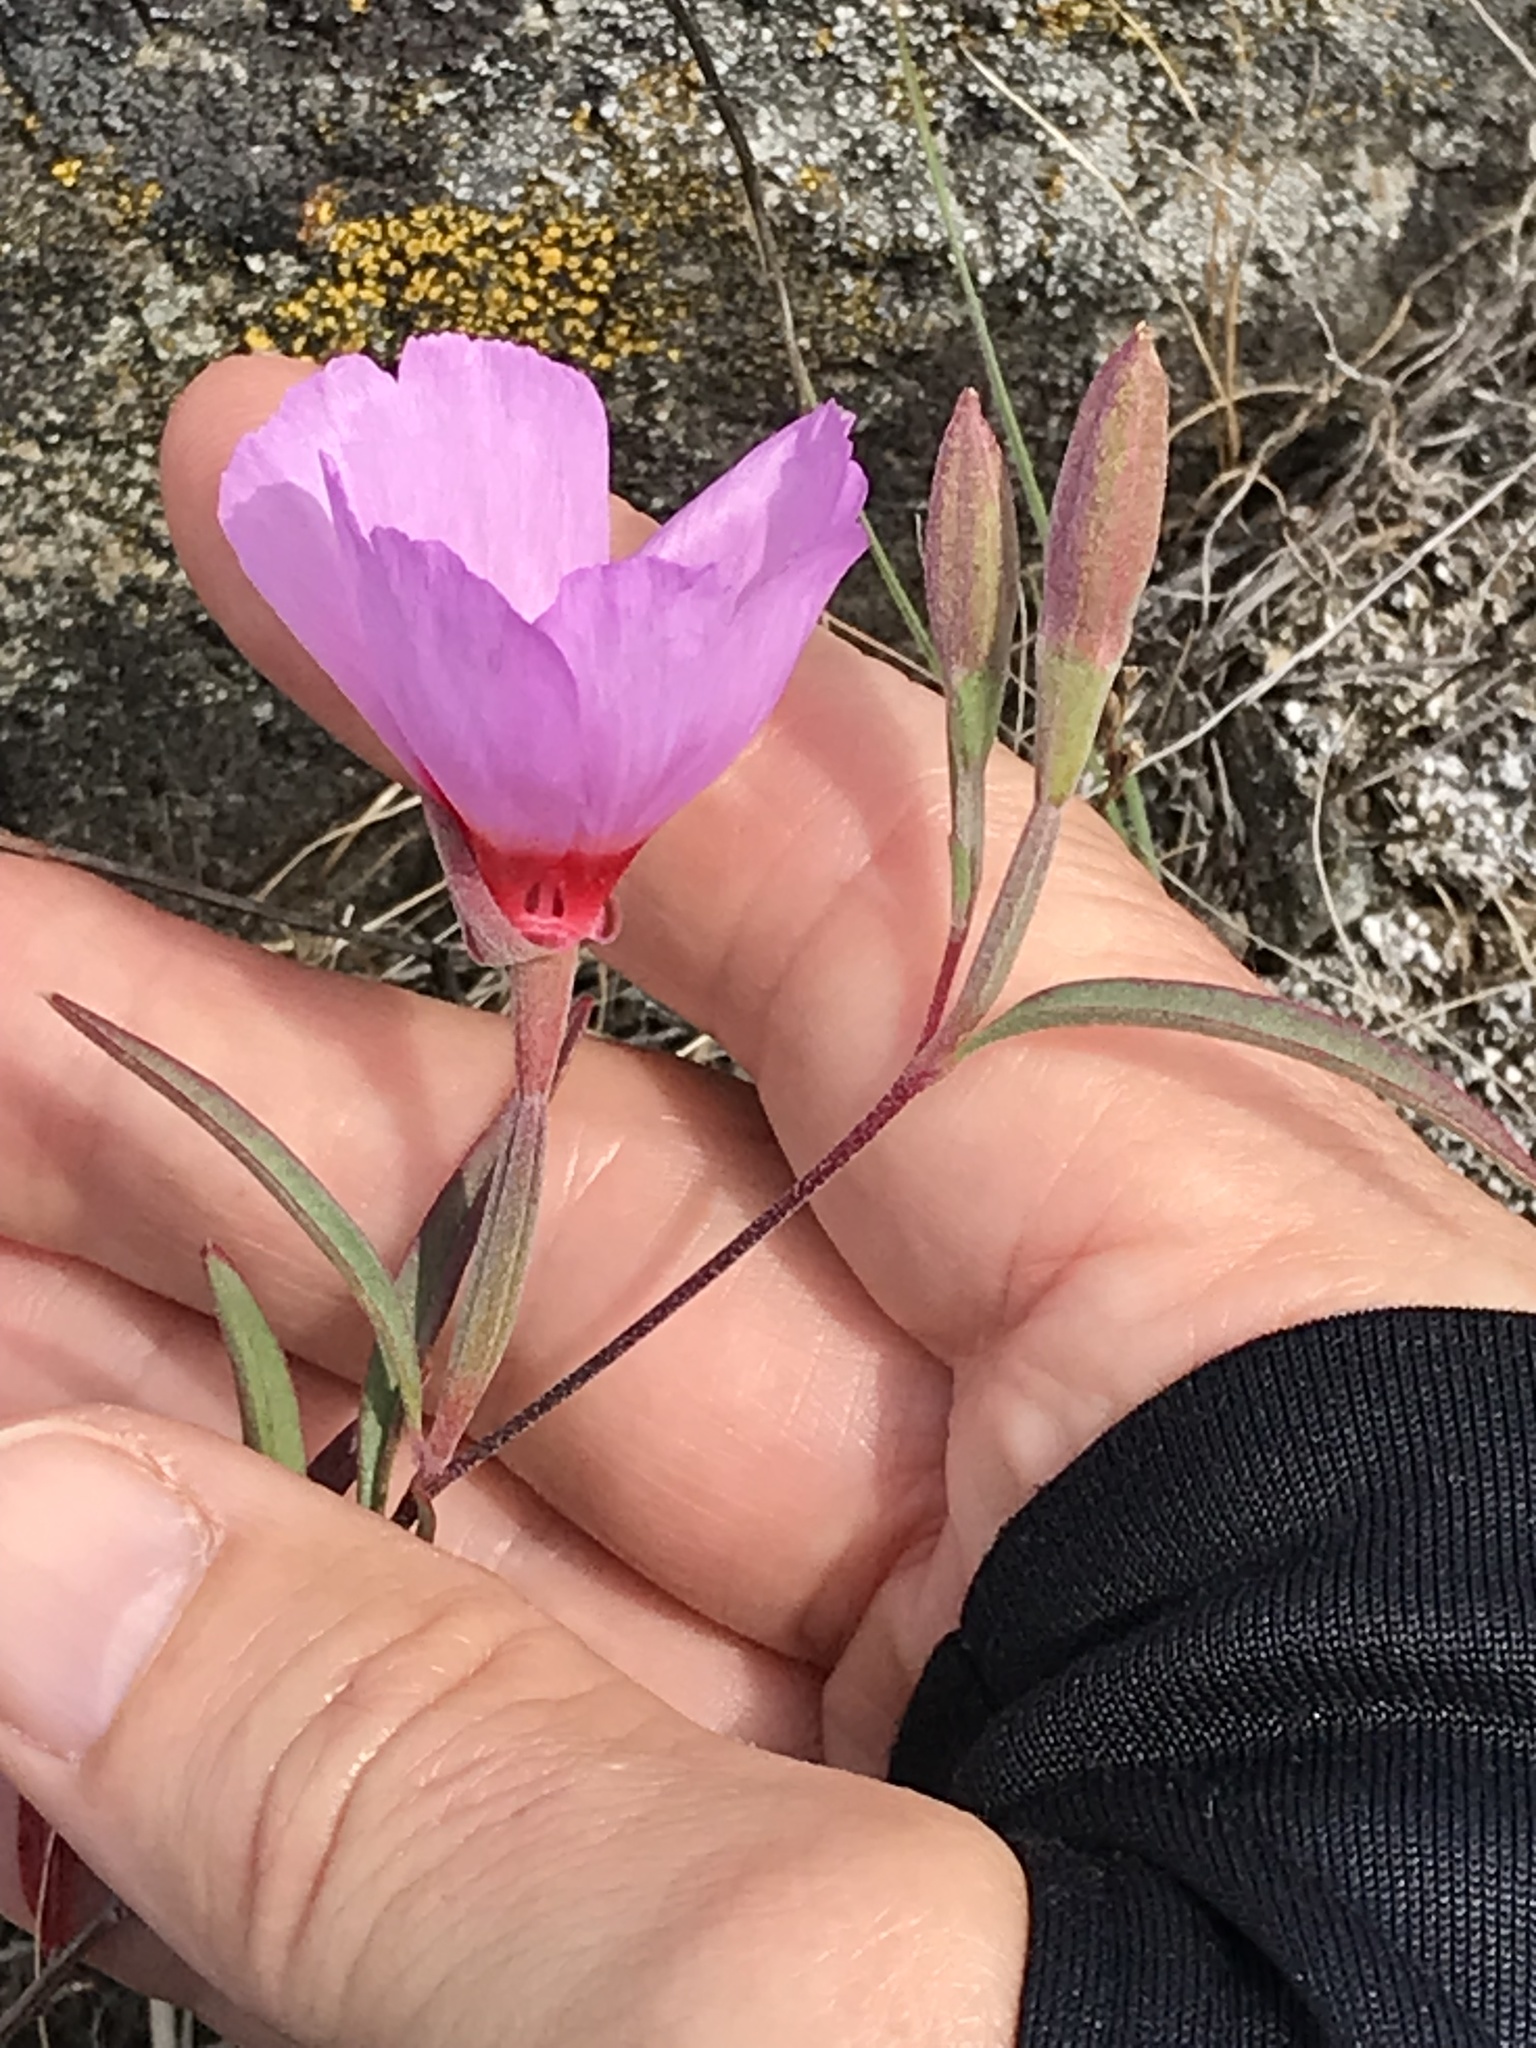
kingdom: Plantae
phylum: Tracheophyta
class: Magnoliopsida
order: Myrtales
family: Onagraceae
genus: Clarkia
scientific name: Clarkia rubicunda
